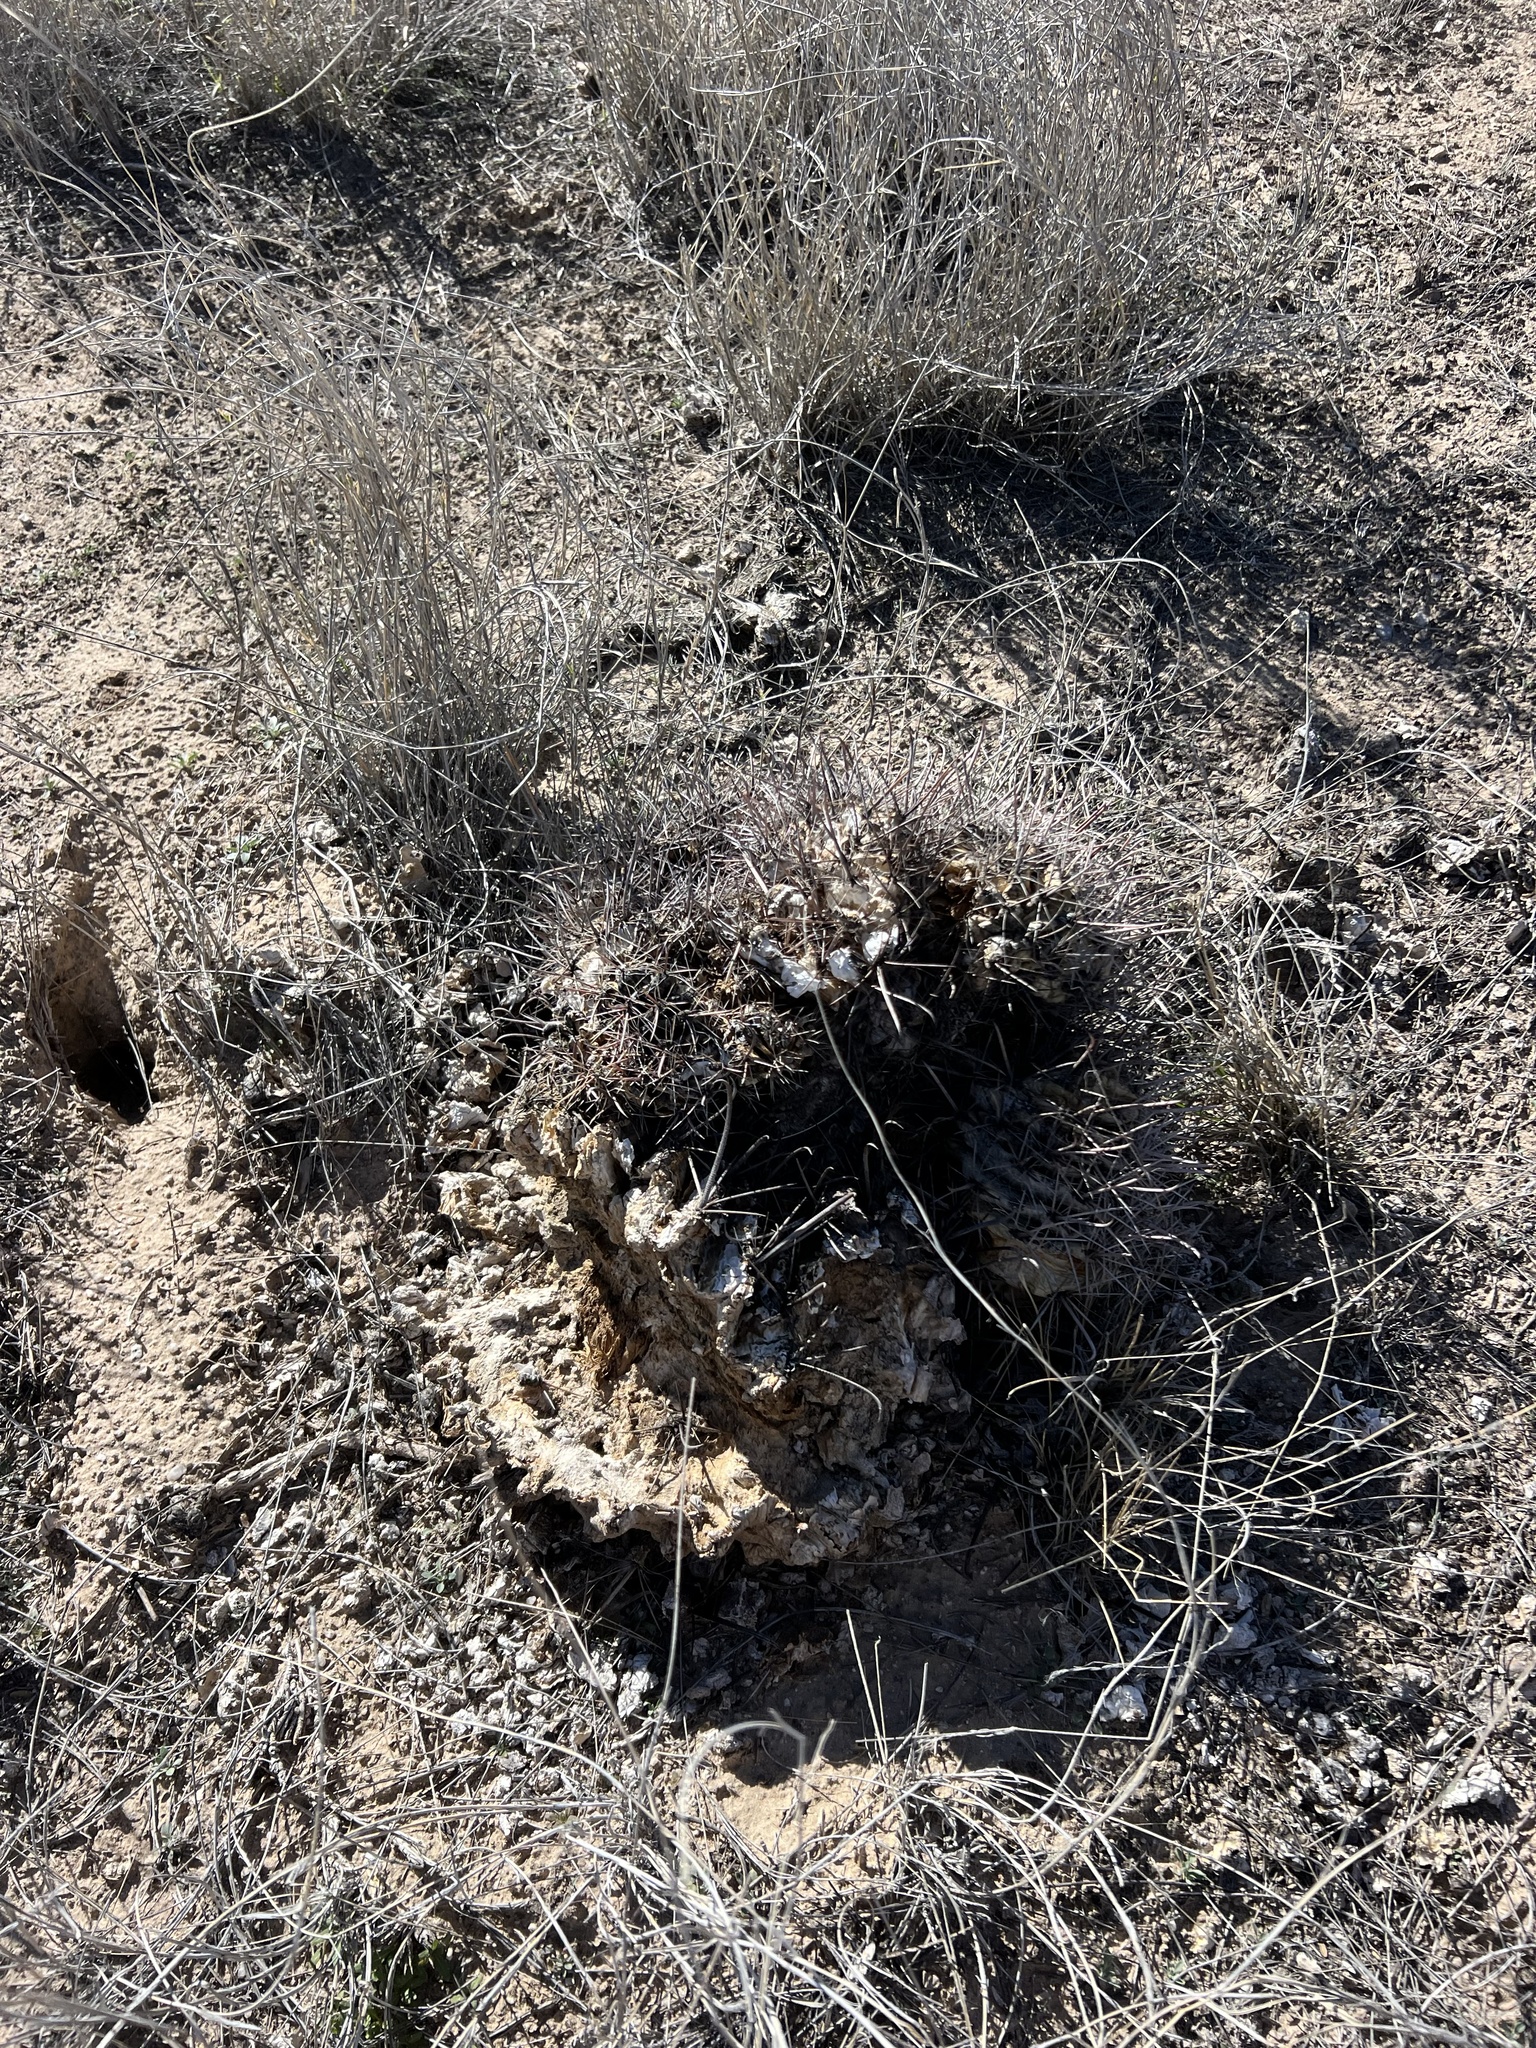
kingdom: Plantae
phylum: Tracheophyta
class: Magnoliopsida
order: Caryophyllales
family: Cactaceae
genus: Ferocactus
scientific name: Ferocactus wislizeni
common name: Candy barrel cactus
